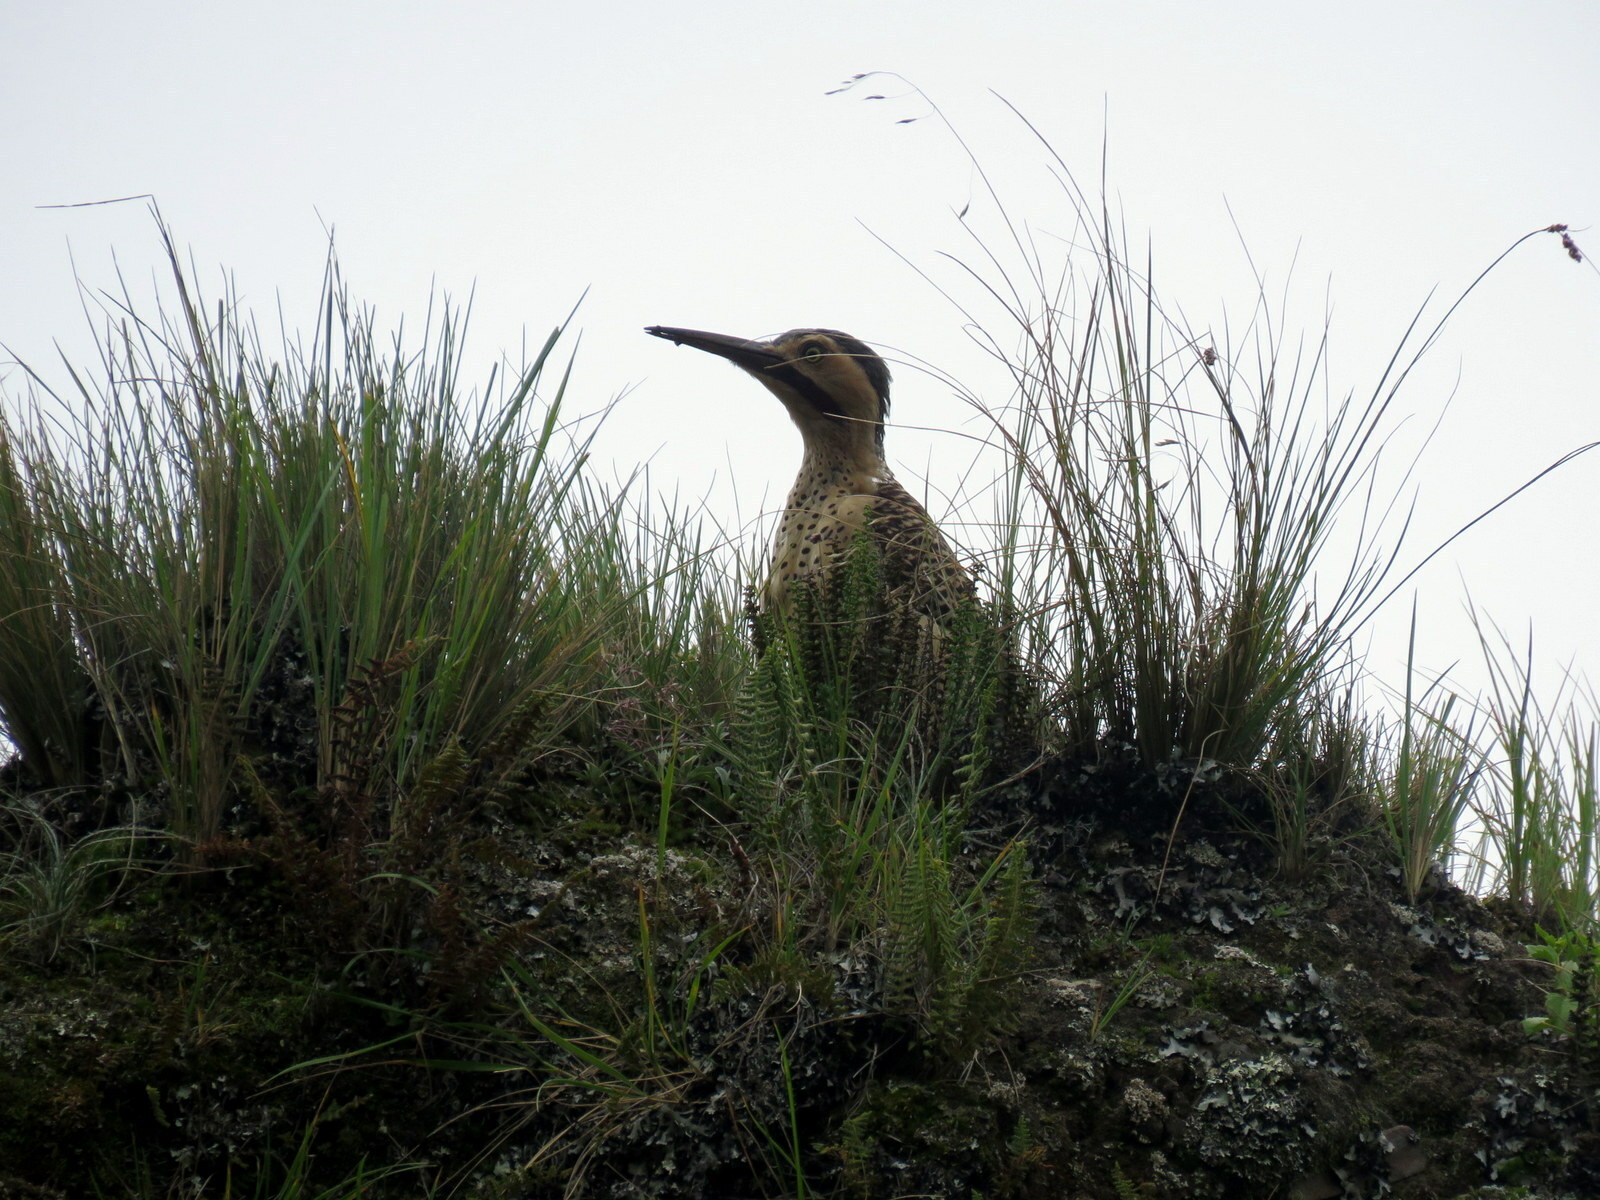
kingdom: Animalia
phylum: Chordata
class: Aves
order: Piciformes
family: Picidae
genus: Colaptes
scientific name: Colaptes rupicola
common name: Andean flicker
